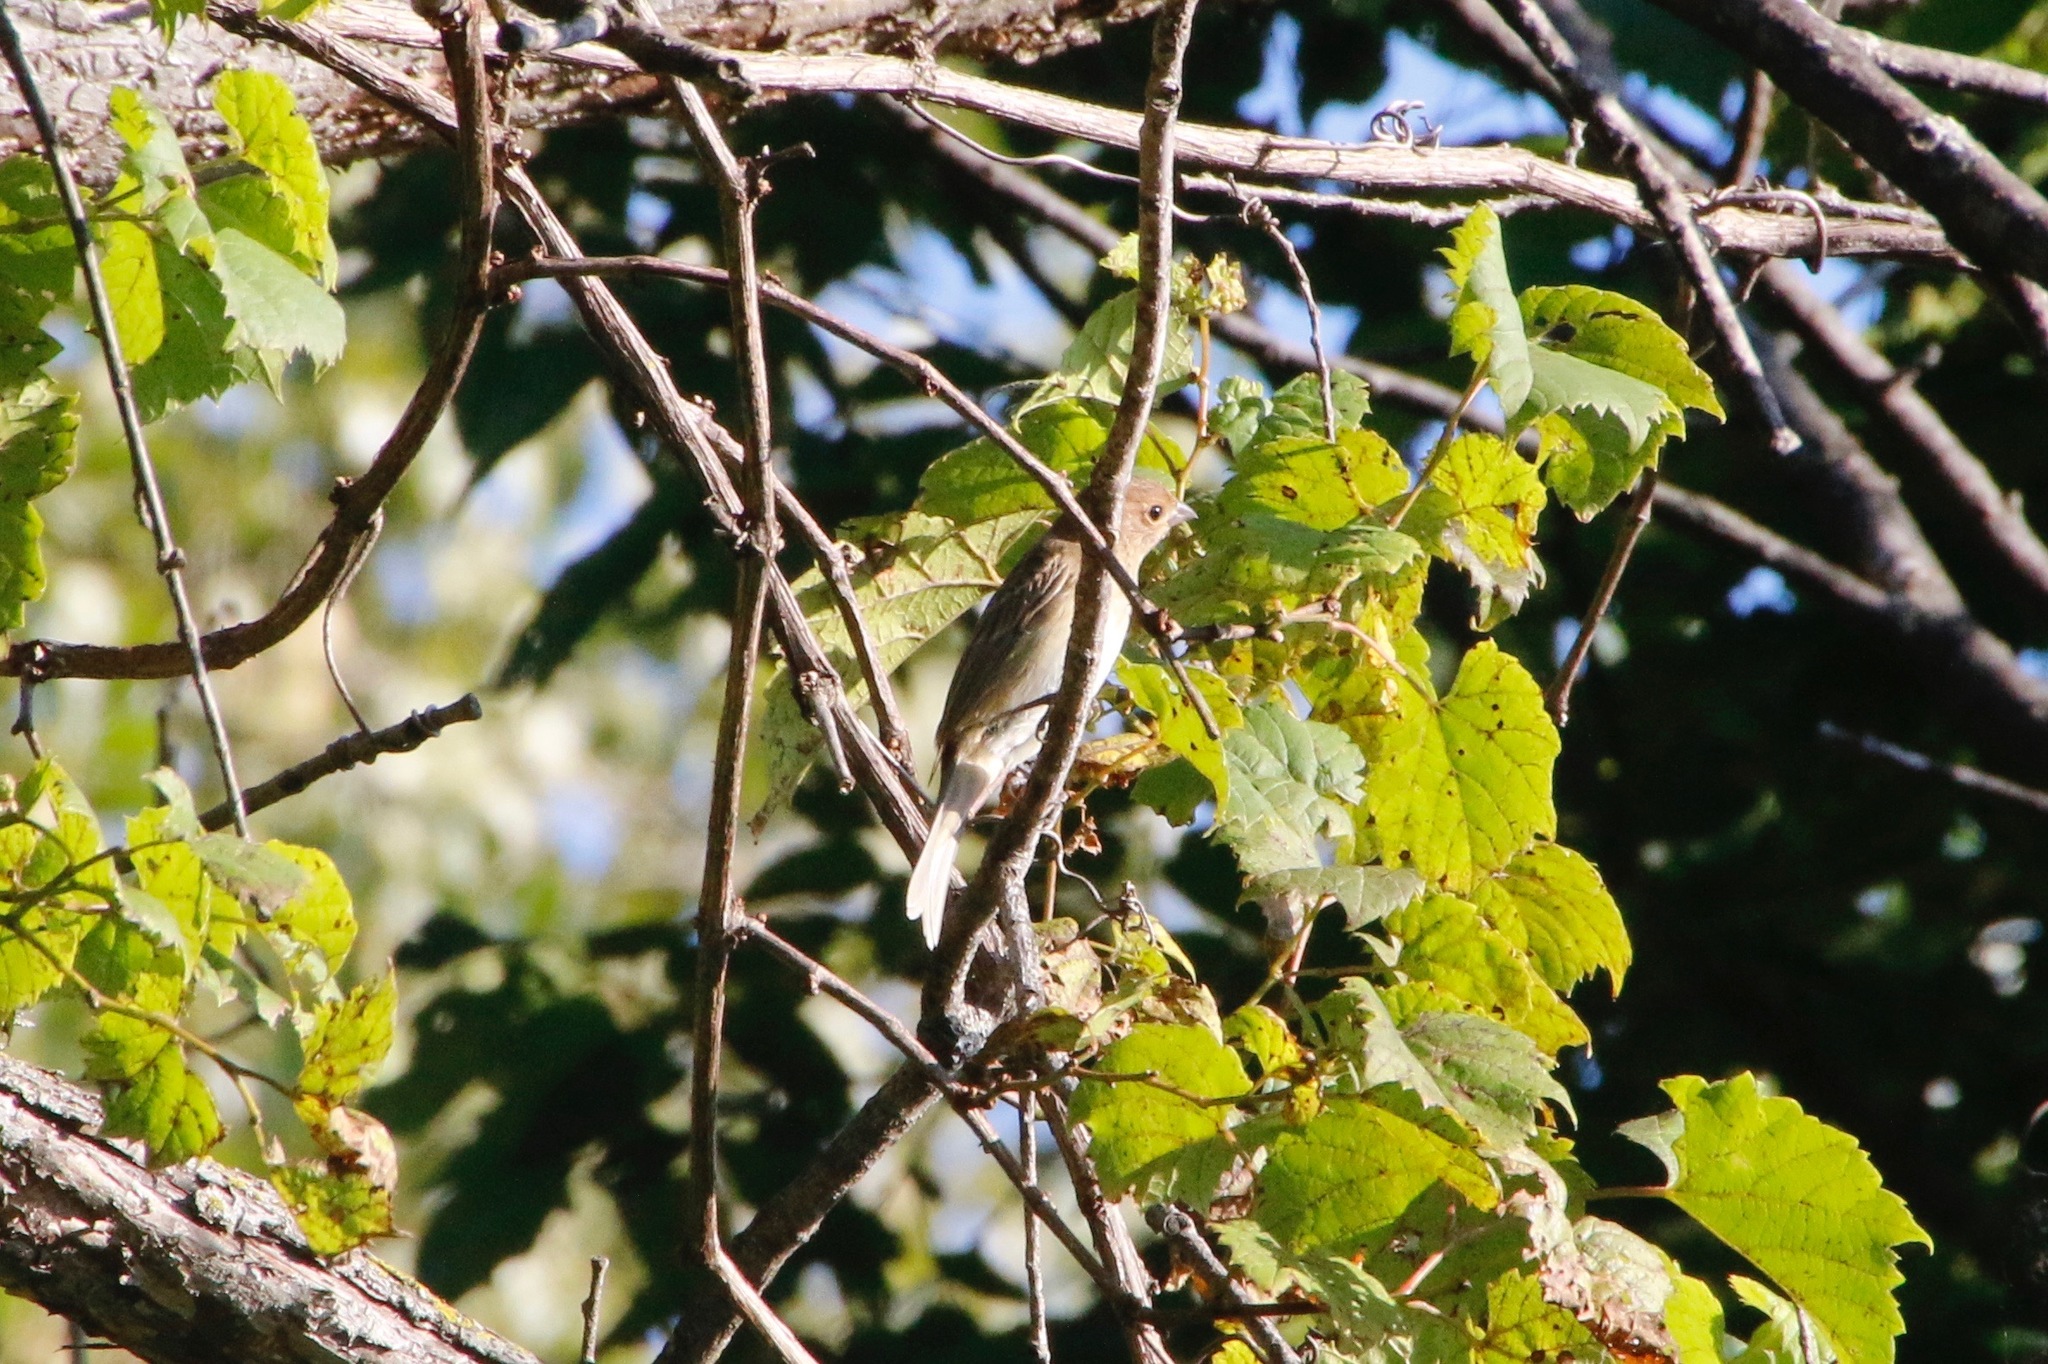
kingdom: Animalia
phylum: Chordata
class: Aves
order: Passeriformes
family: Cardinalidae
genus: Passerina
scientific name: Passerina cyanea
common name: Indigo bunting
